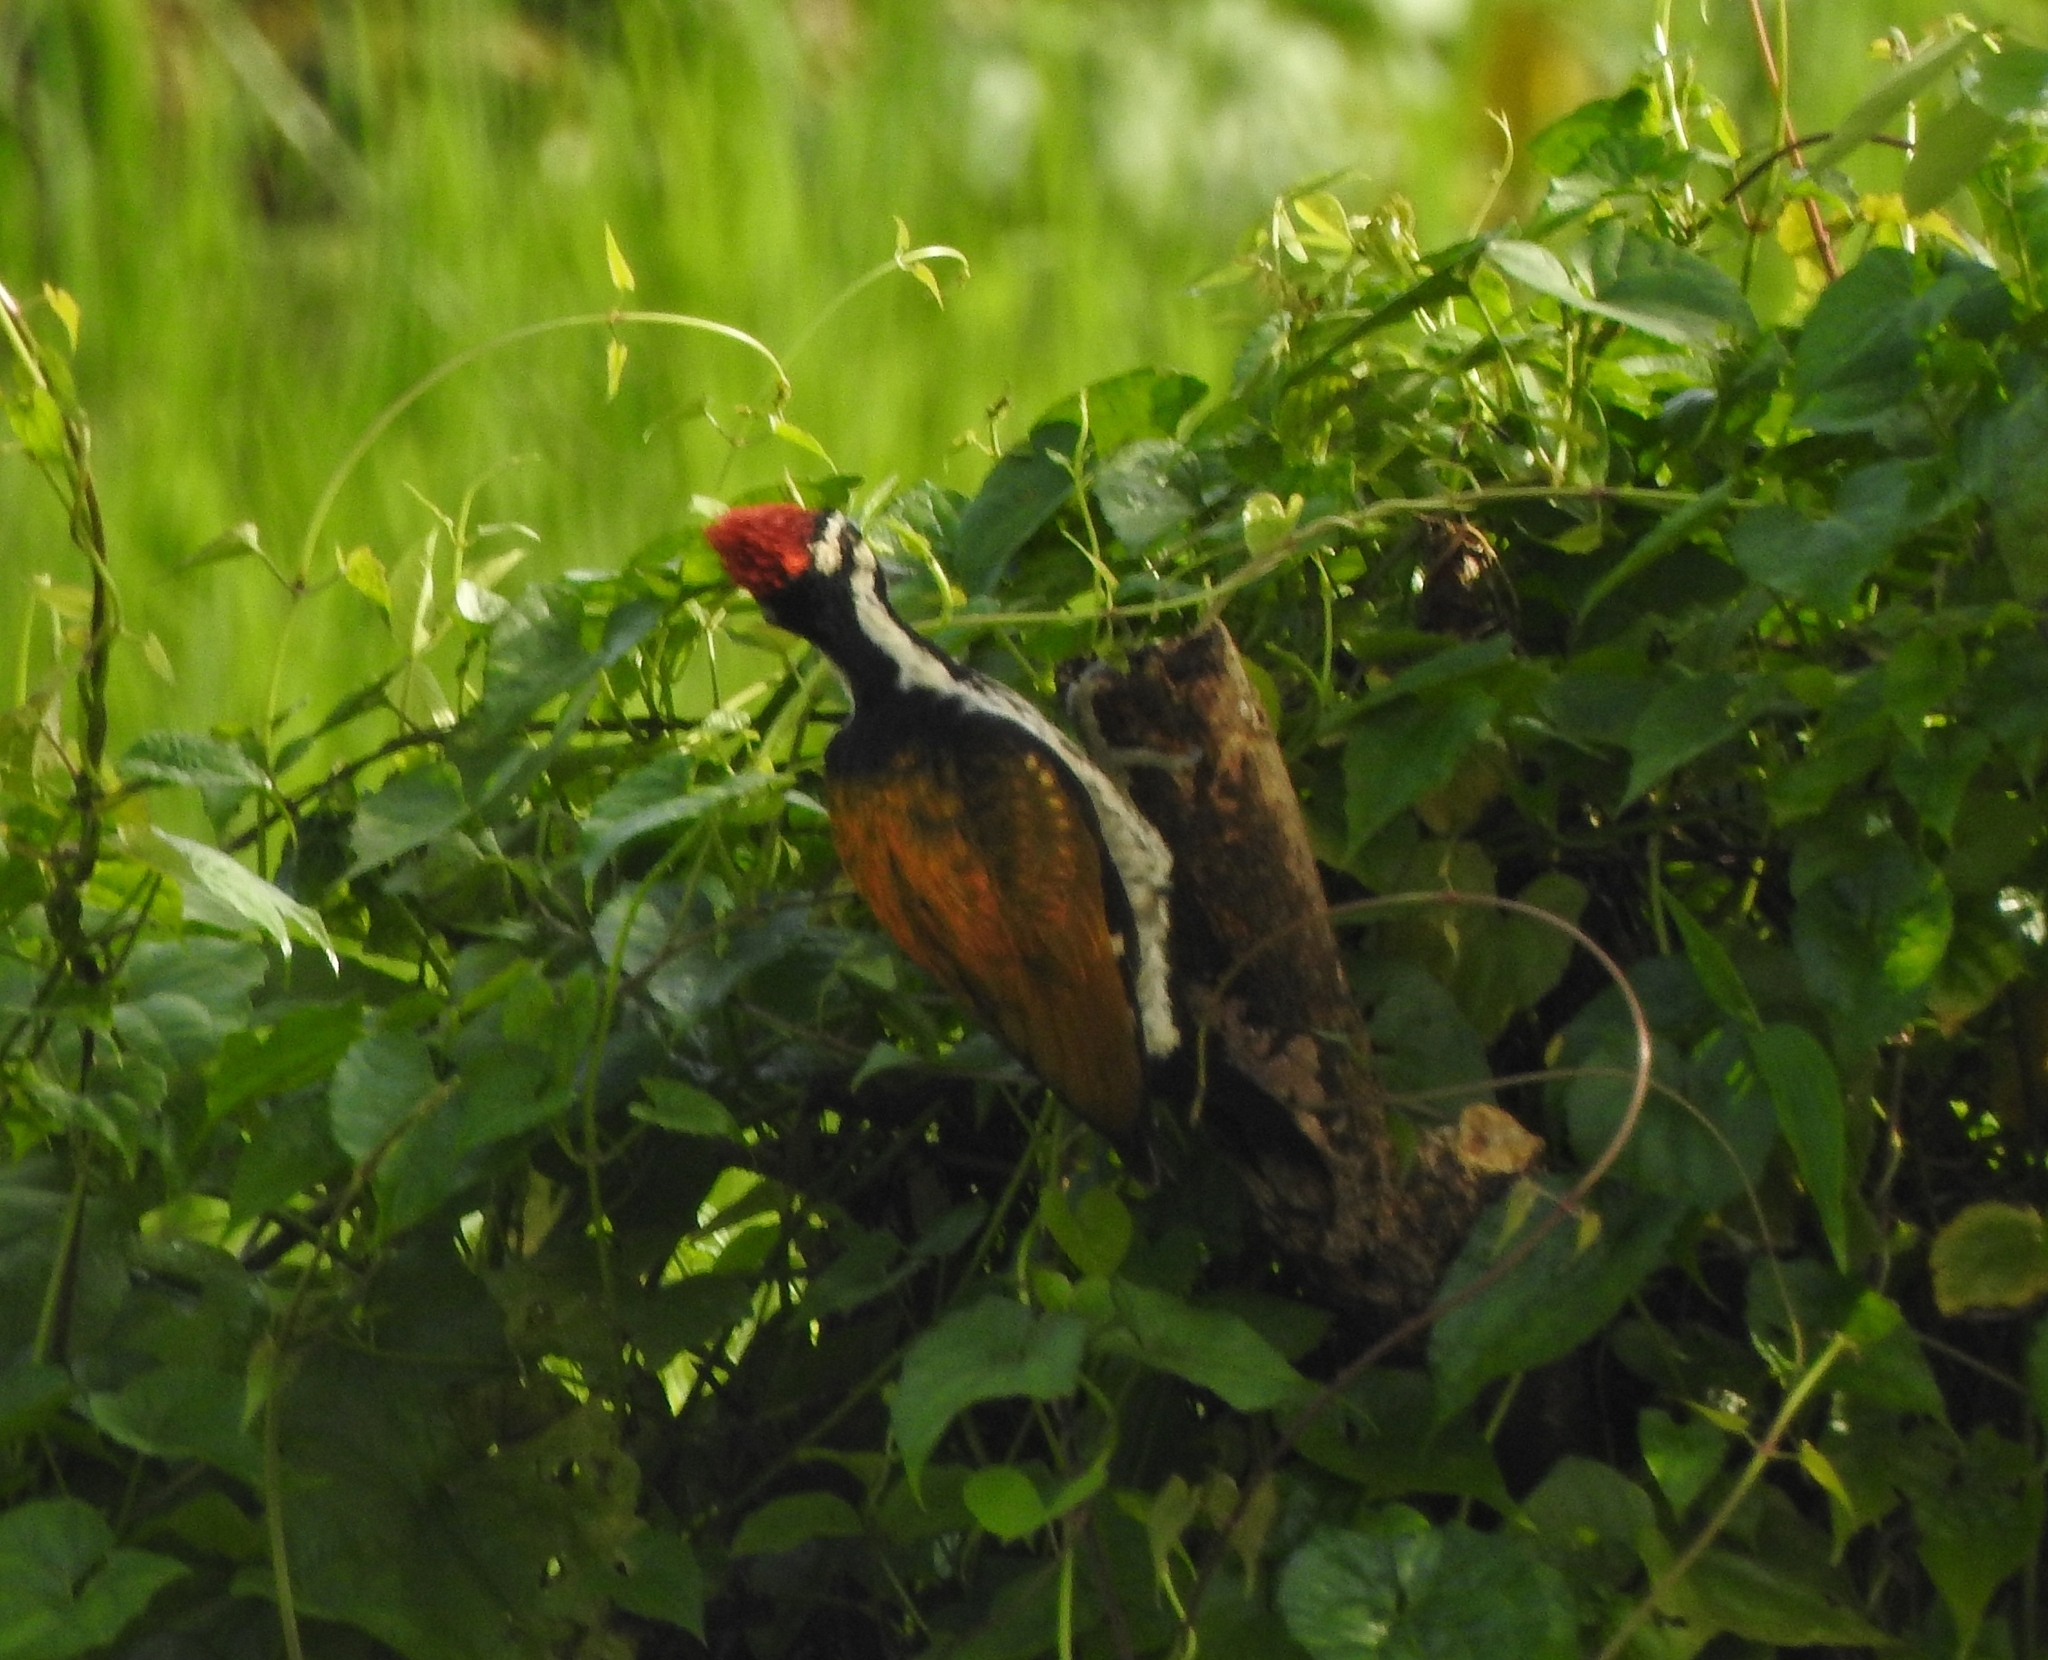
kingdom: Animalia
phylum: Chordata
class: Aves
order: Piciformes
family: Picidae
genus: Dinopium
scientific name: Dinopium benghalense
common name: Black-rumped flameback
